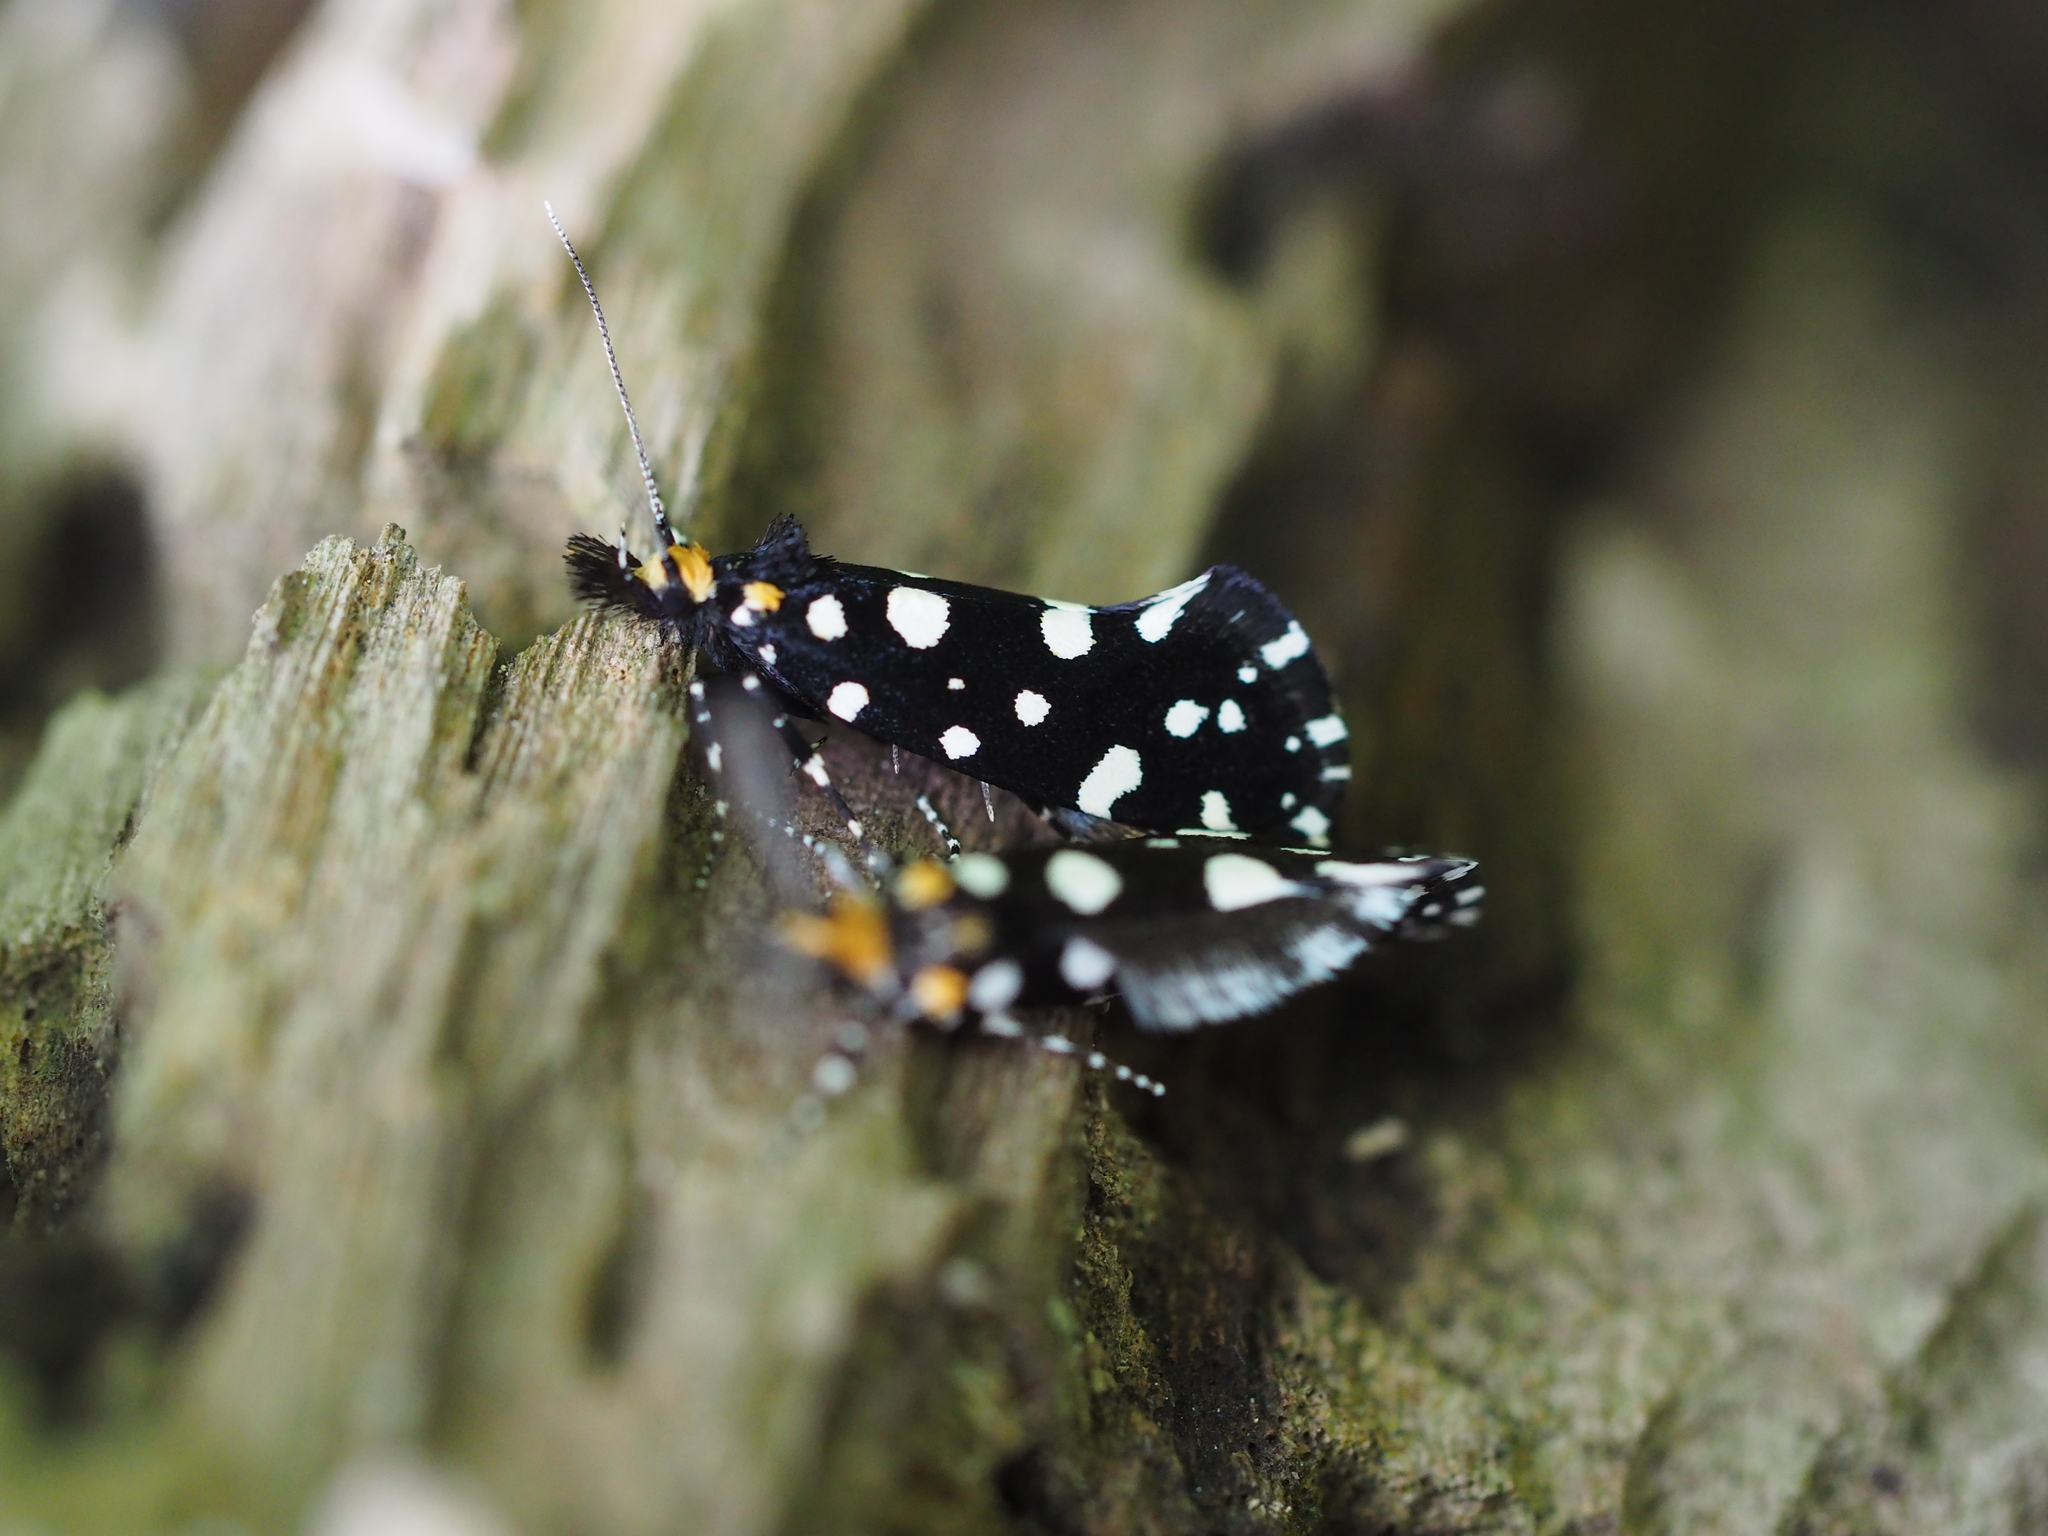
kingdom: Animalia
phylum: Arthropoda
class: Insecta
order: Lepidoptera
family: Tineidae
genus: Euplocamus
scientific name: Euplocamus anthracinalis
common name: Black clothes
